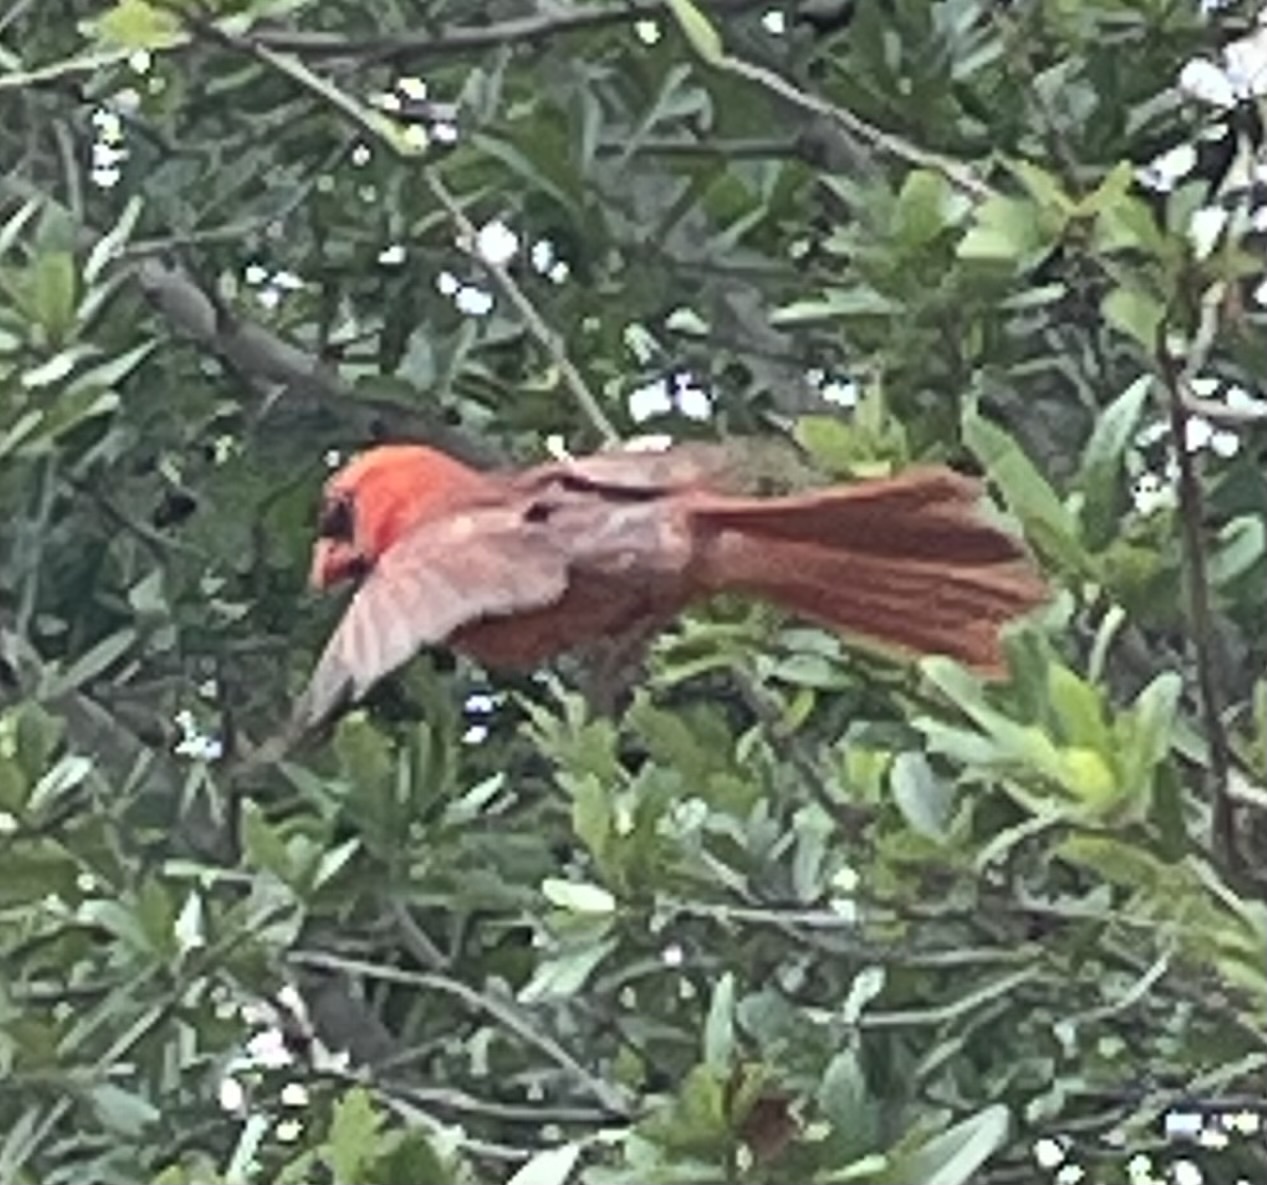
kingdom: Animalia
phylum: Chordata
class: Aves
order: Passeriformes
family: Cardinalidae
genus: Cardinalis
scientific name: Cardinalis cardinalis
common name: Northern cardinal
